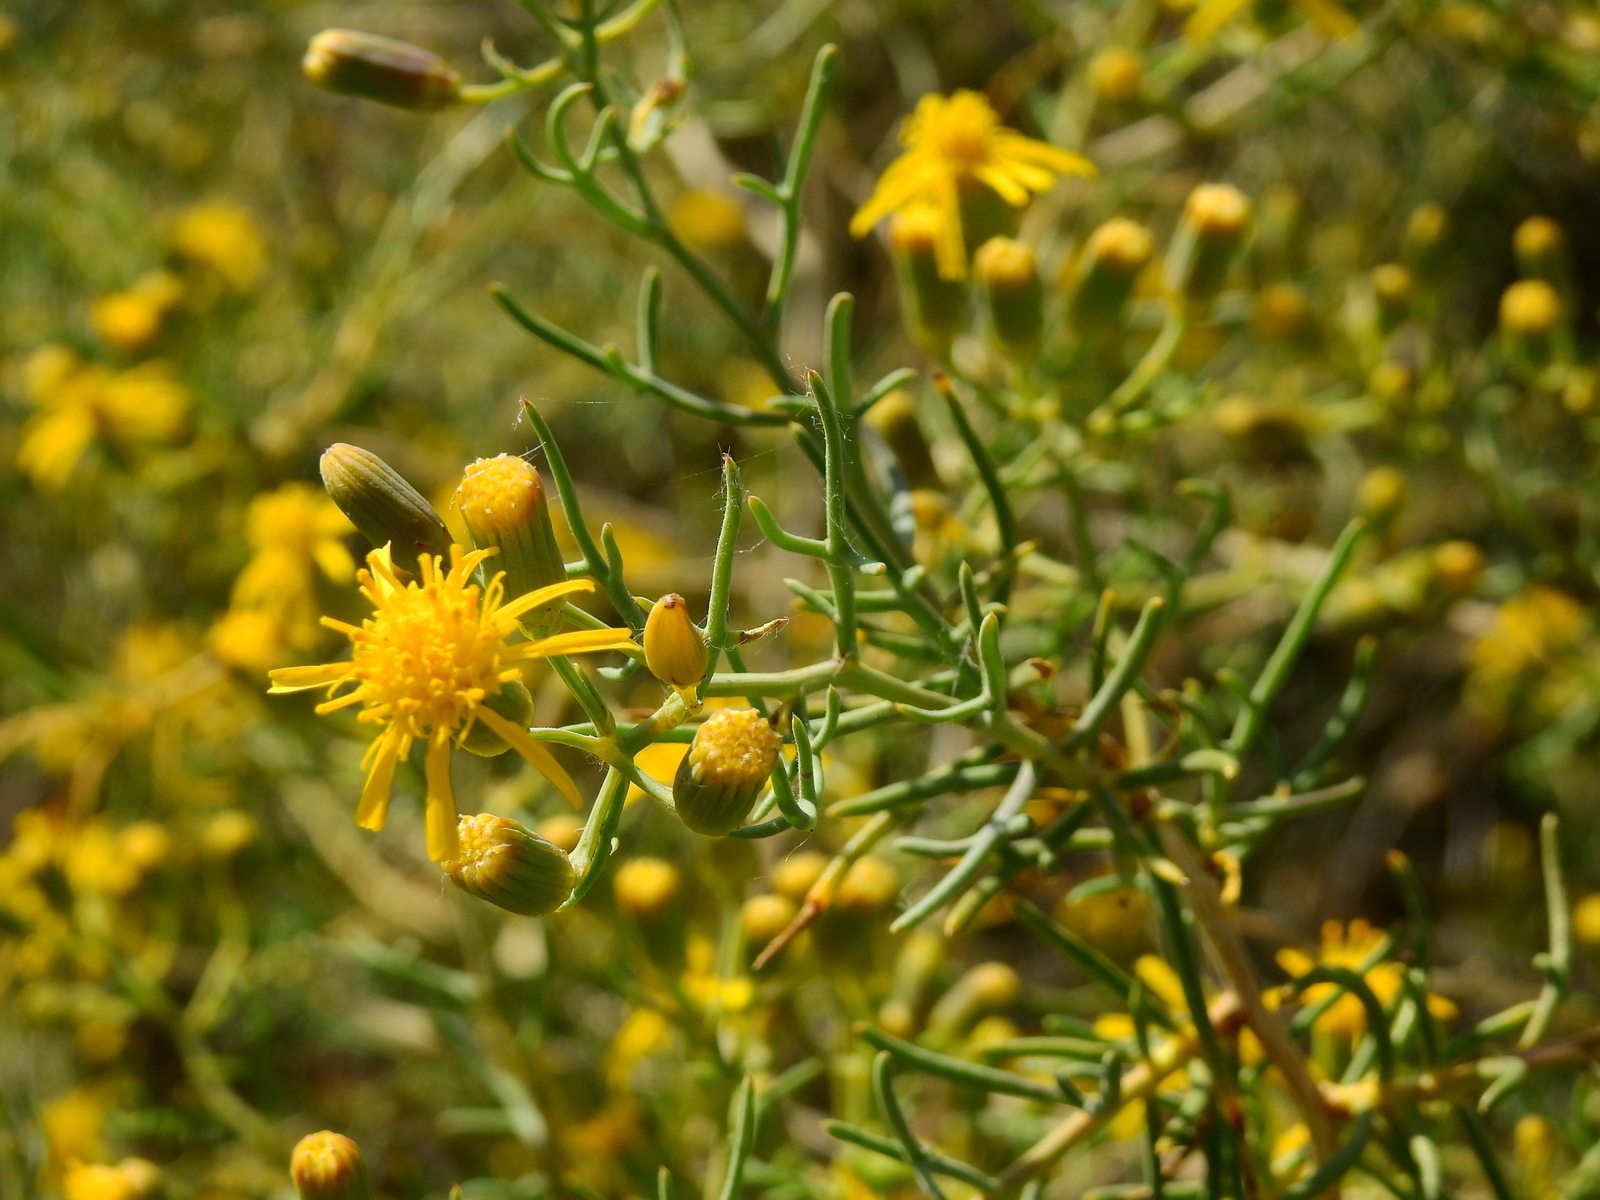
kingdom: Plantae
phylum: Tracheophyta
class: Magnoliopsida
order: Asterales
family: Asteraceae
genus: Senecio
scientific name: Senecio subulatus
